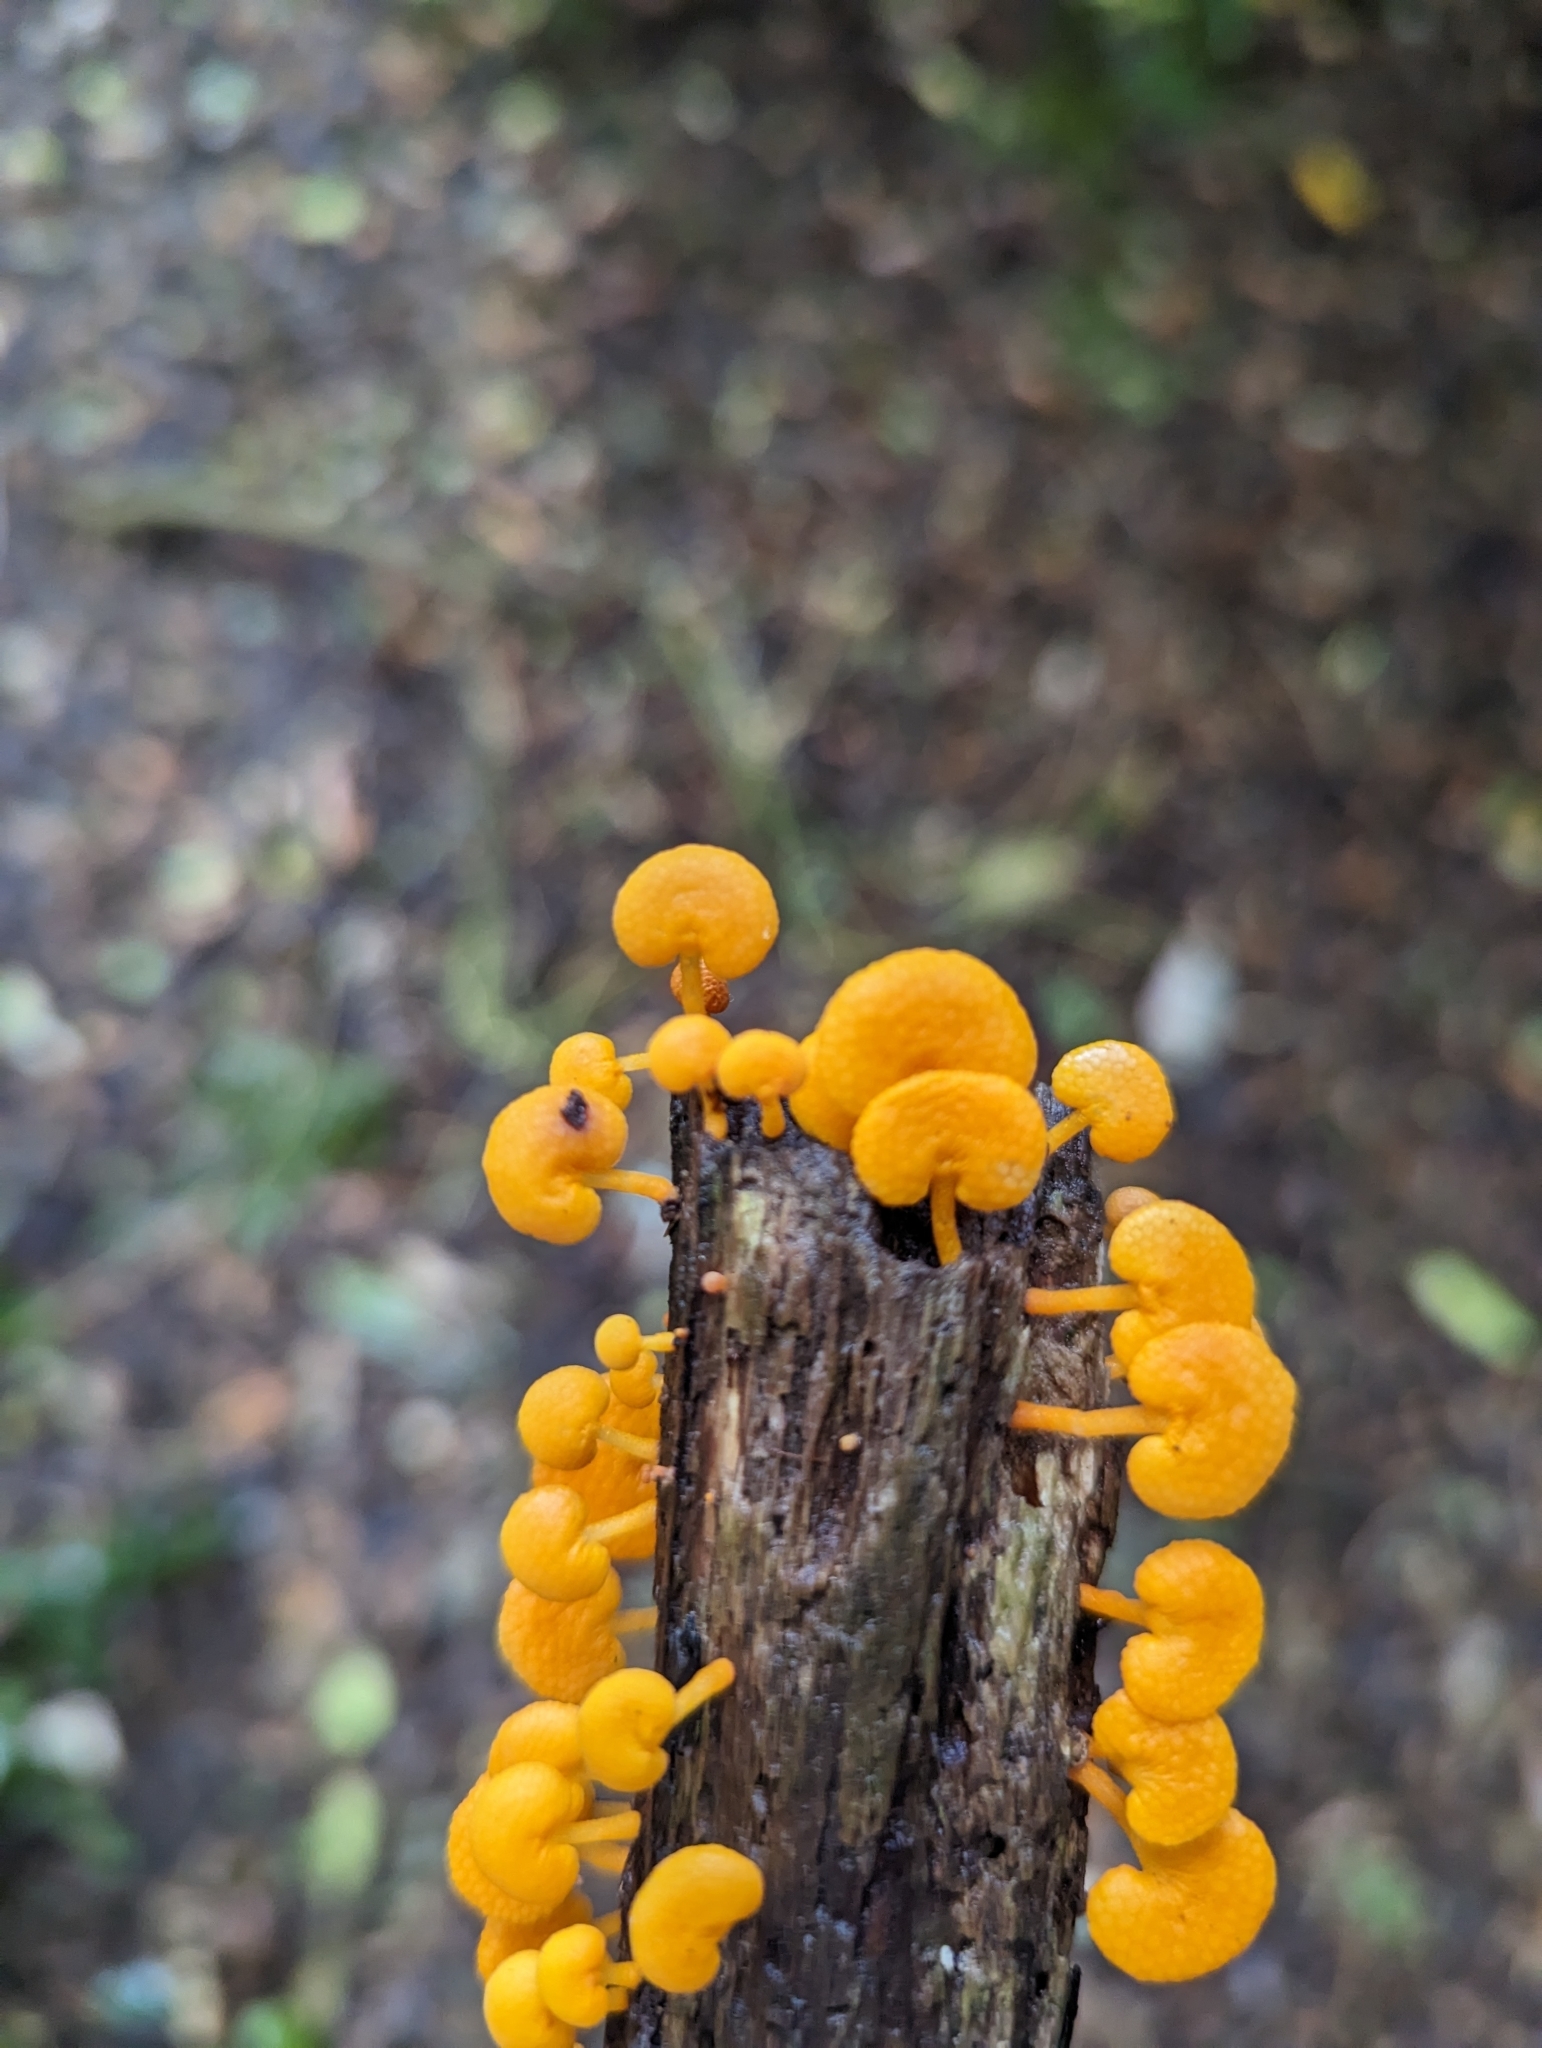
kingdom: Fungi
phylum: Basidiomycota
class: Agaricomycetes
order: Agaricales
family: Mycenaceae
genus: Favolaschia
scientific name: Favolaschia claudopus
